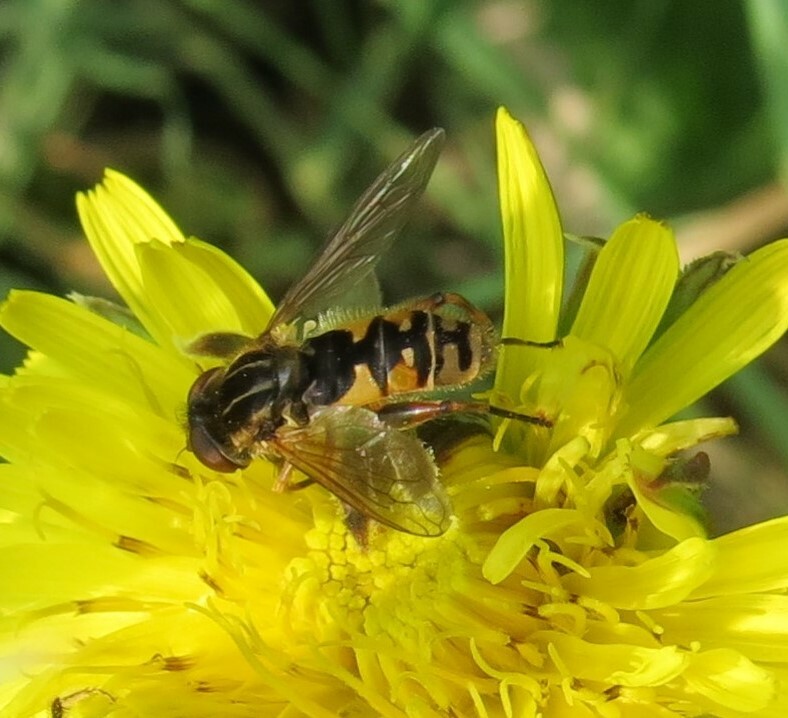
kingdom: Animalia
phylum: Arthropoda
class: Insecta
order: Diptera
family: Syrphidae
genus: Eurimyia
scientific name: Eurimyia stipatus
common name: Long-nosed swamp fly
